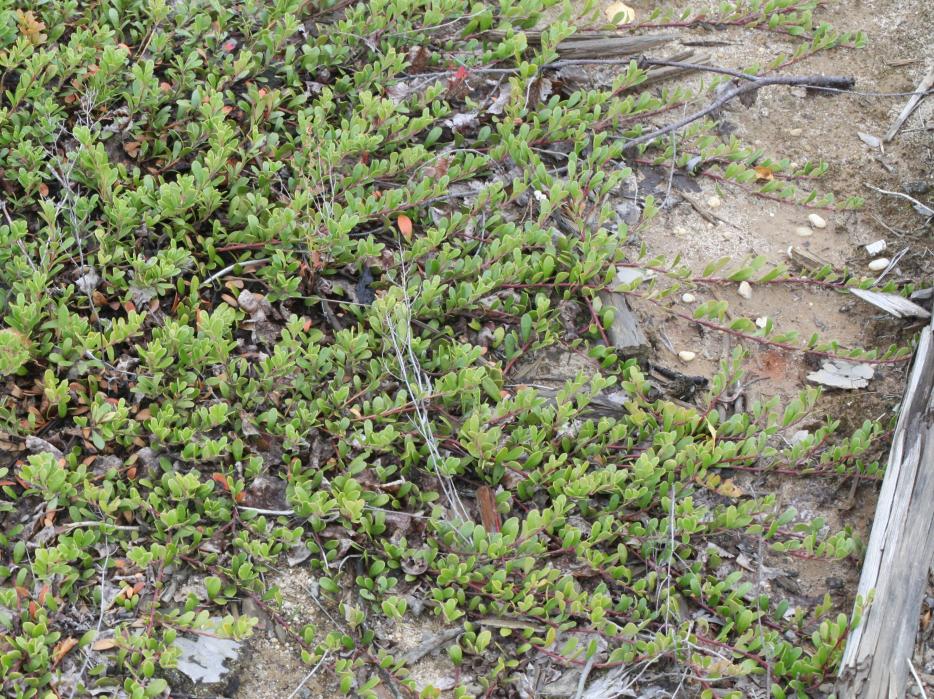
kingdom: Plantae
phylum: Tracheophyta
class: Magnoliopsida
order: Ericales
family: Ericaceae
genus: Arctostaphylos
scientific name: Arctostaphylos uva-ursi
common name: Bearberry
